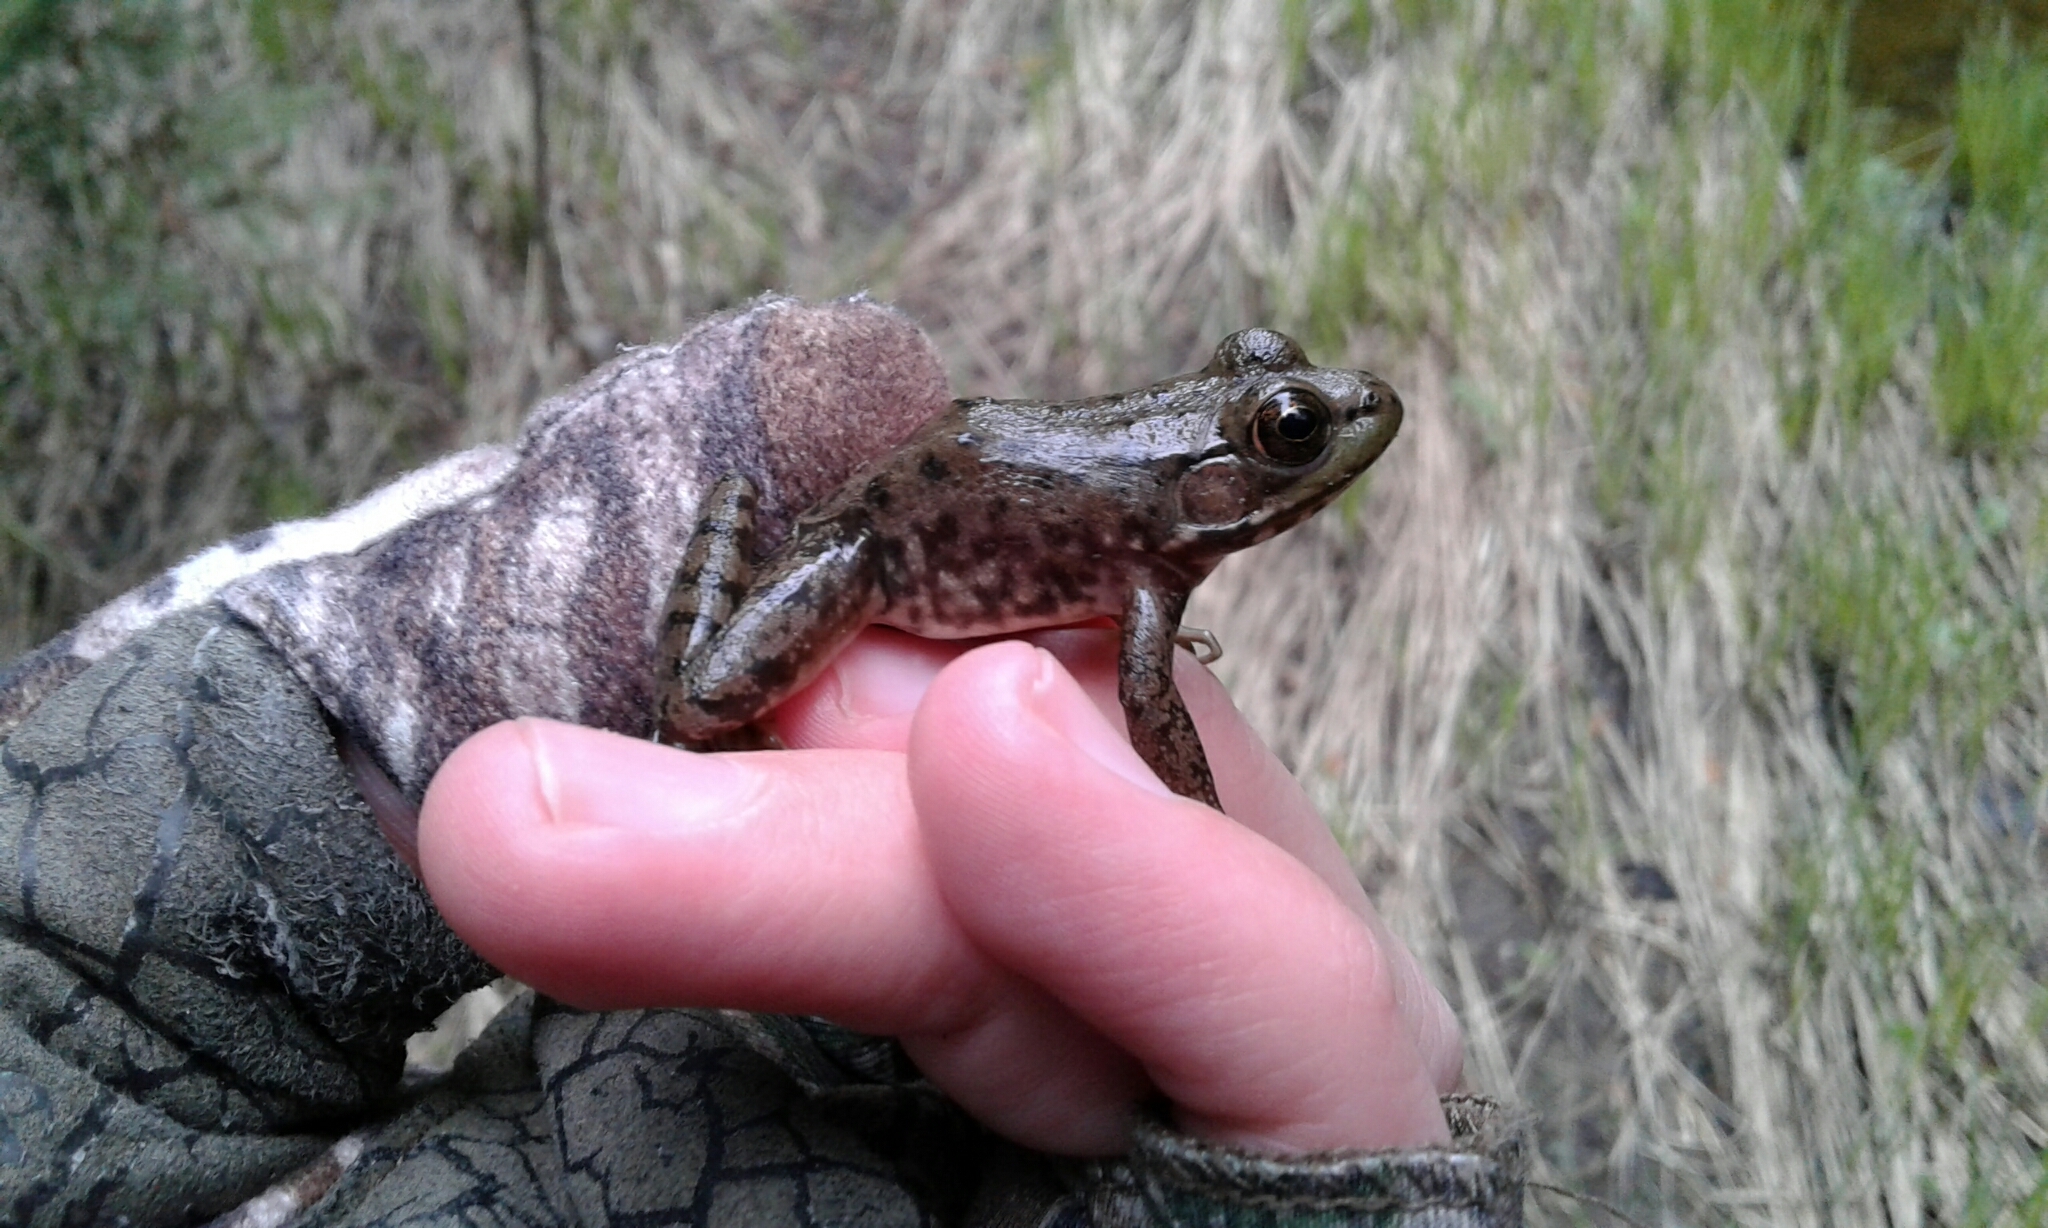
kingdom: Animalia
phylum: Chordata
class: Amphibia
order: Anura
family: Ranidae
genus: Lithobates
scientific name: Lithobates catesbeianus
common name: American bullfrog
